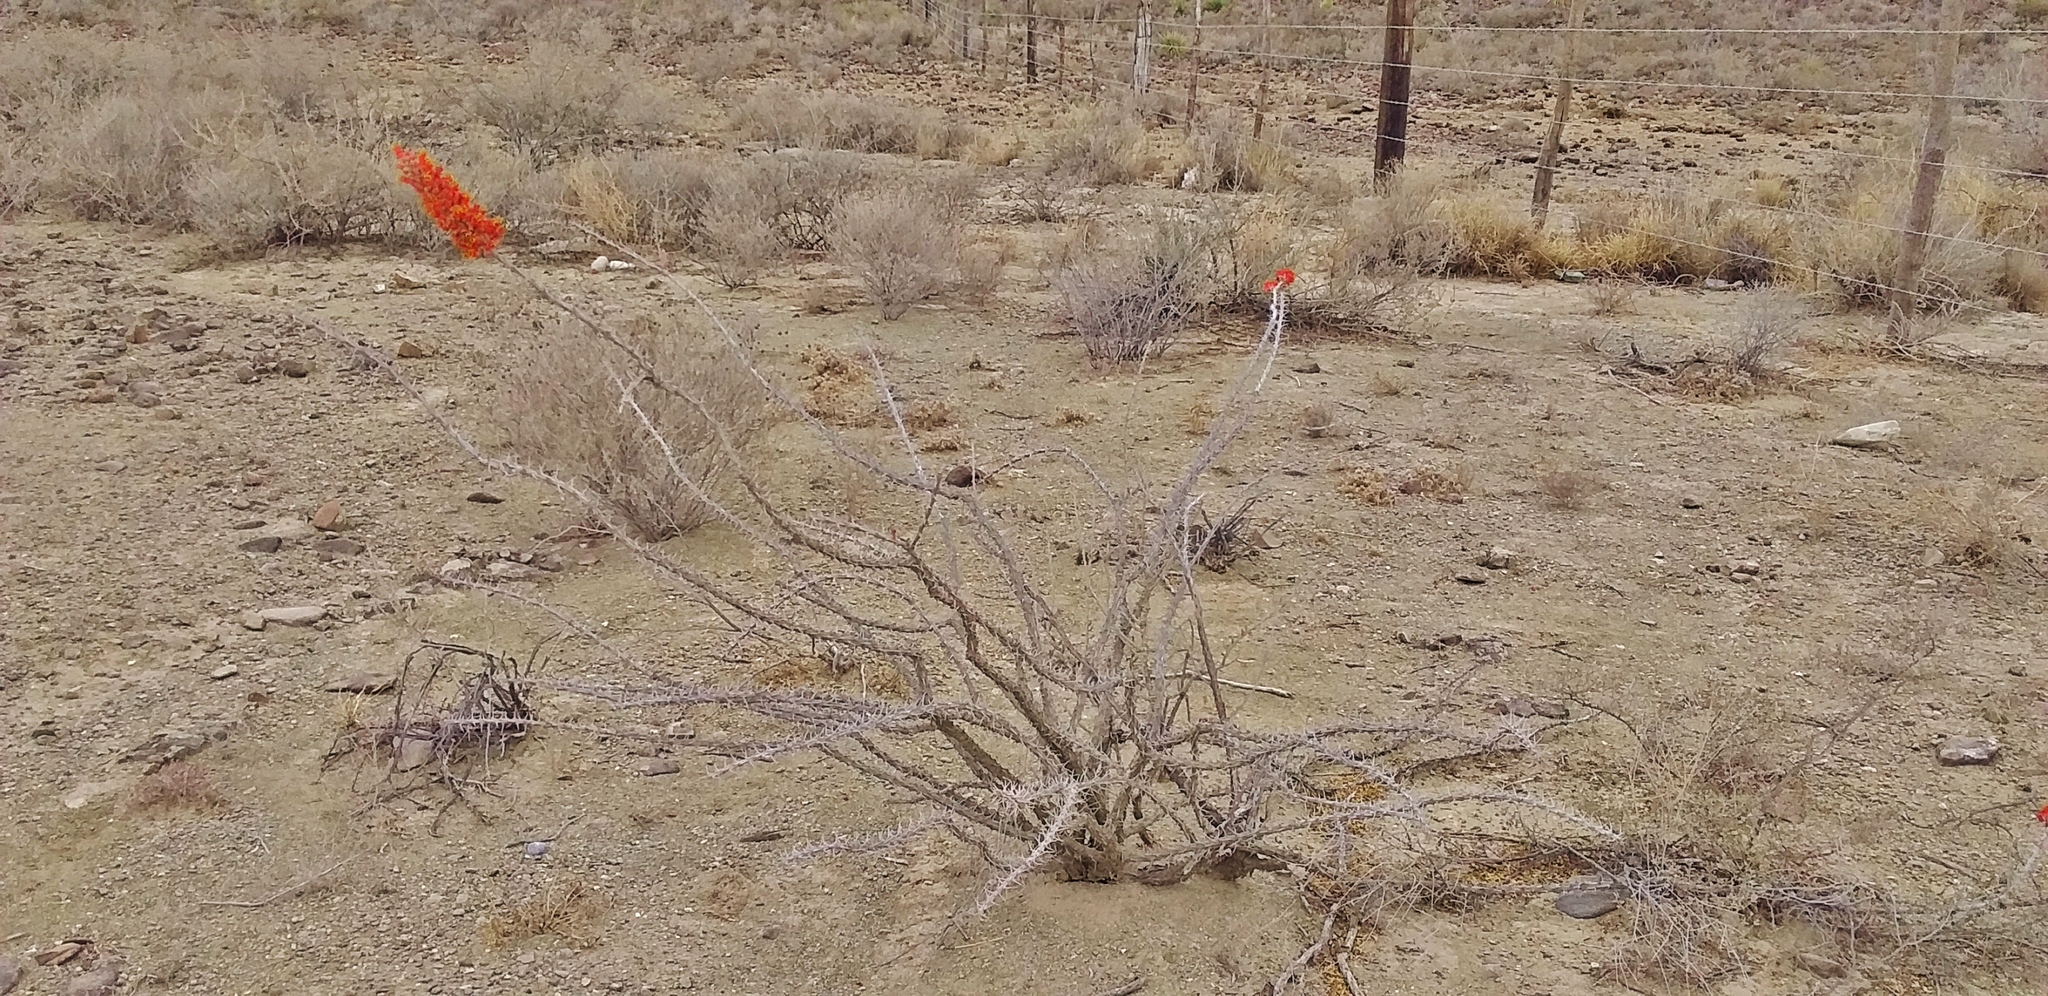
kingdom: Plantae
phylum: Tracheophyta
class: Magnoliopsida
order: Ericales
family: Fouquieriaceae
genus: Fouquieria
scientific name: Fouquieria splendens
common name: Vine-cactus
